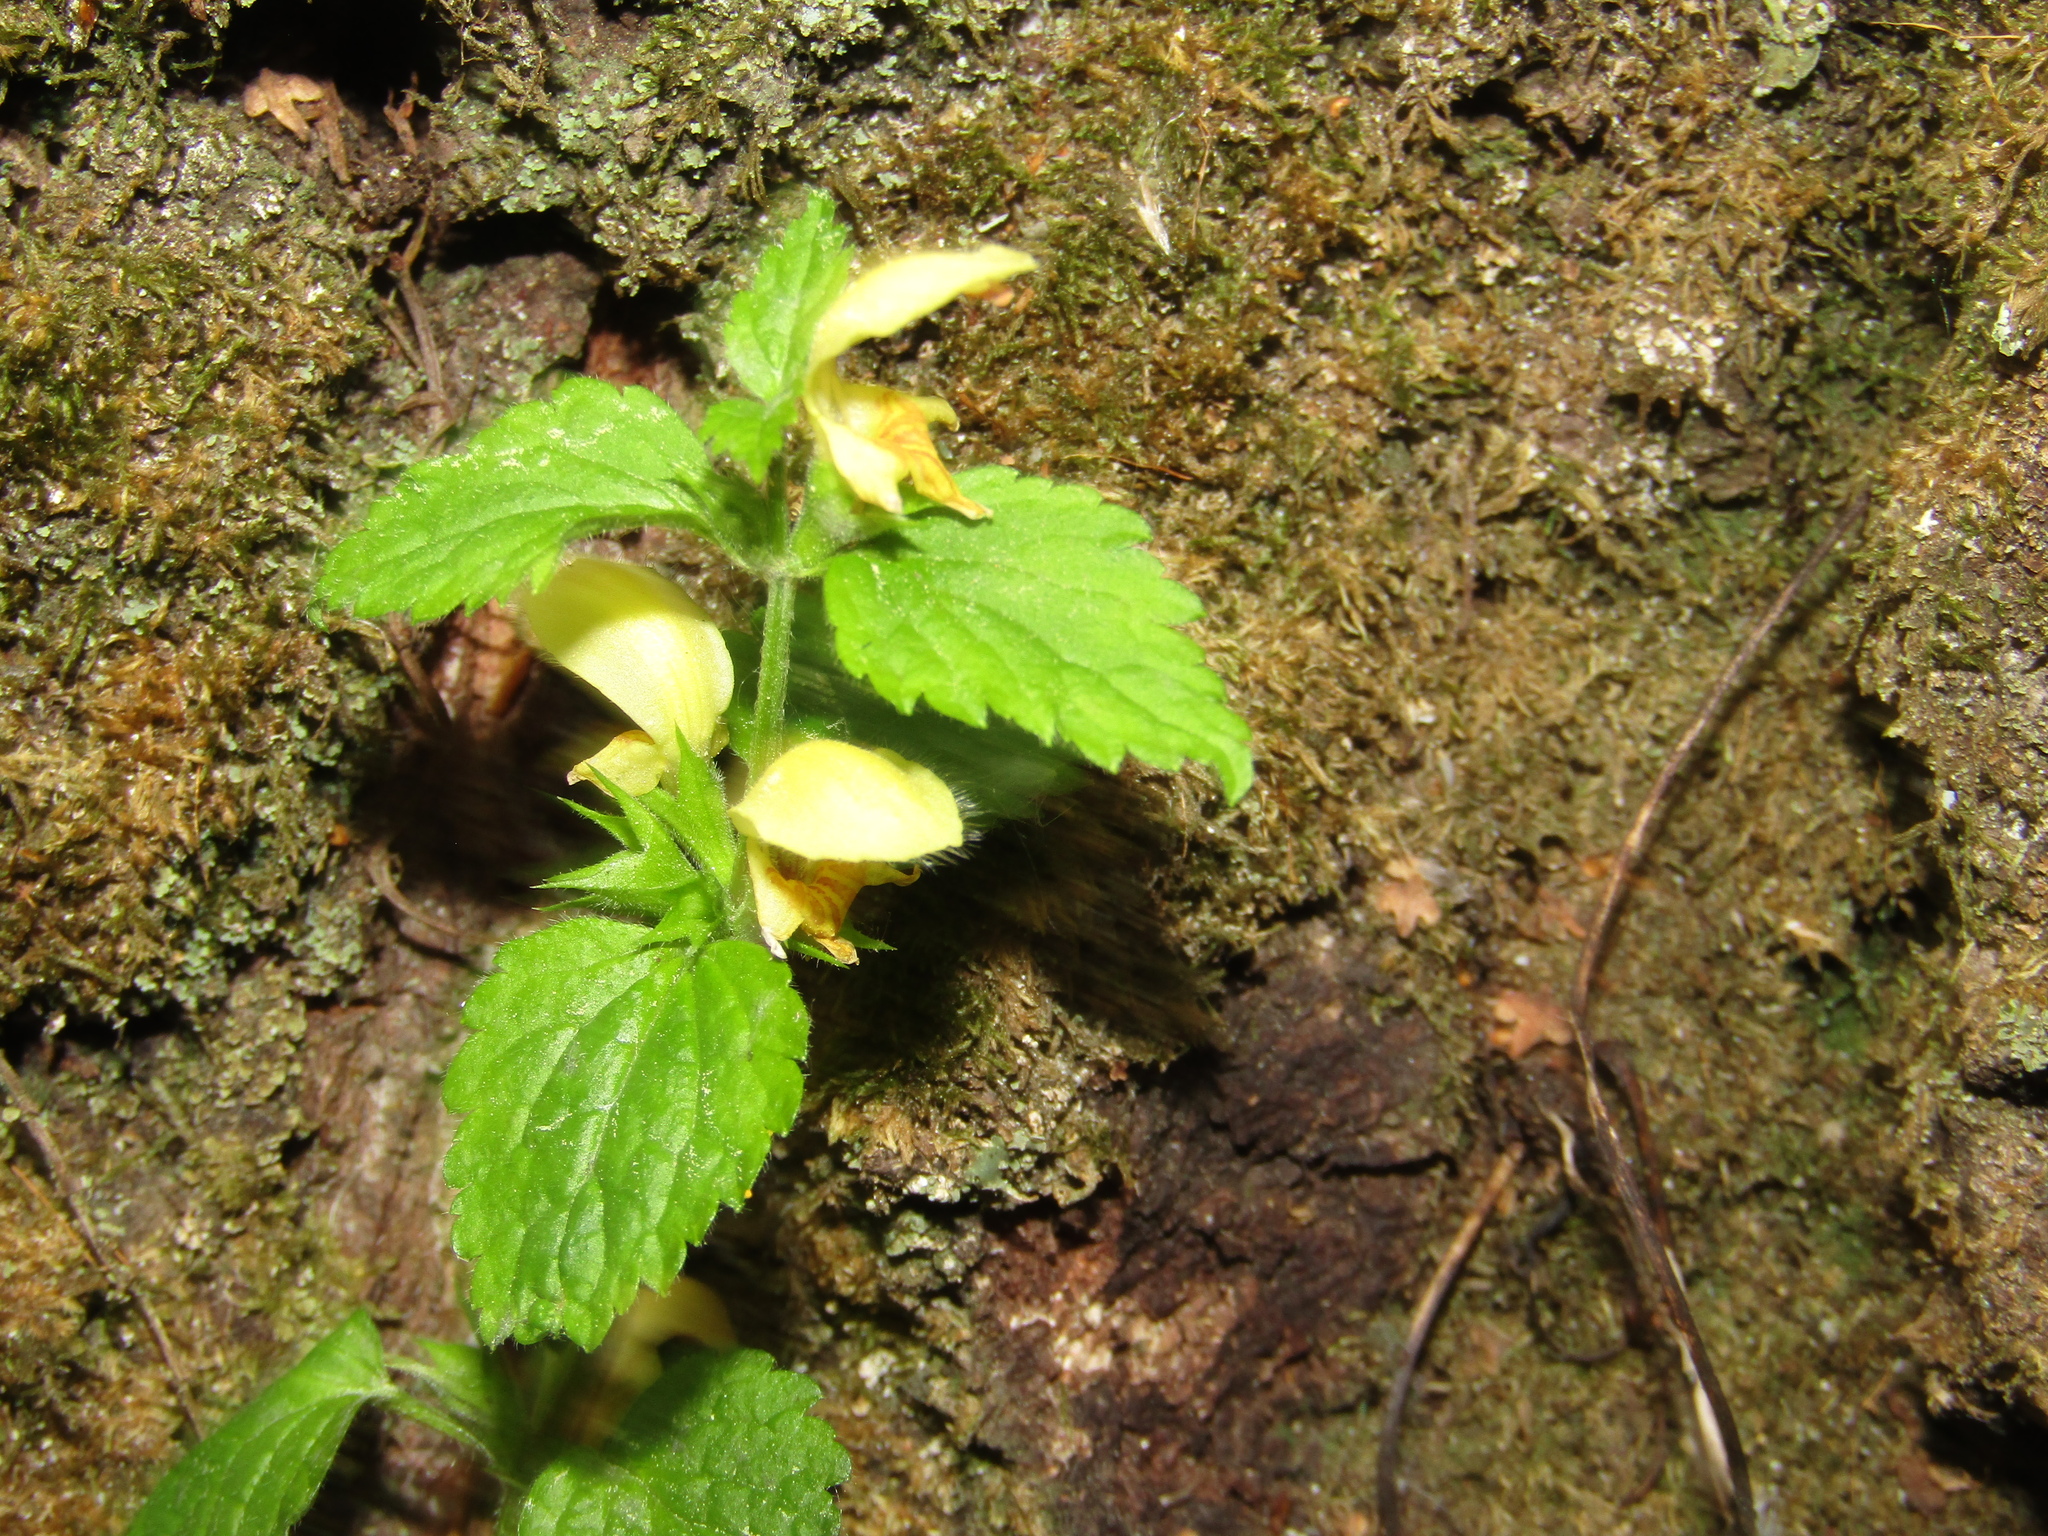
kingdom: Plantae
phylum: Tracheophyta
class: Magnoliopsida
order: Lamiales
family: Lamiaceae
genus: Lamium
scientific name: Lamium galeobdolon
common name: Yellow archangel
